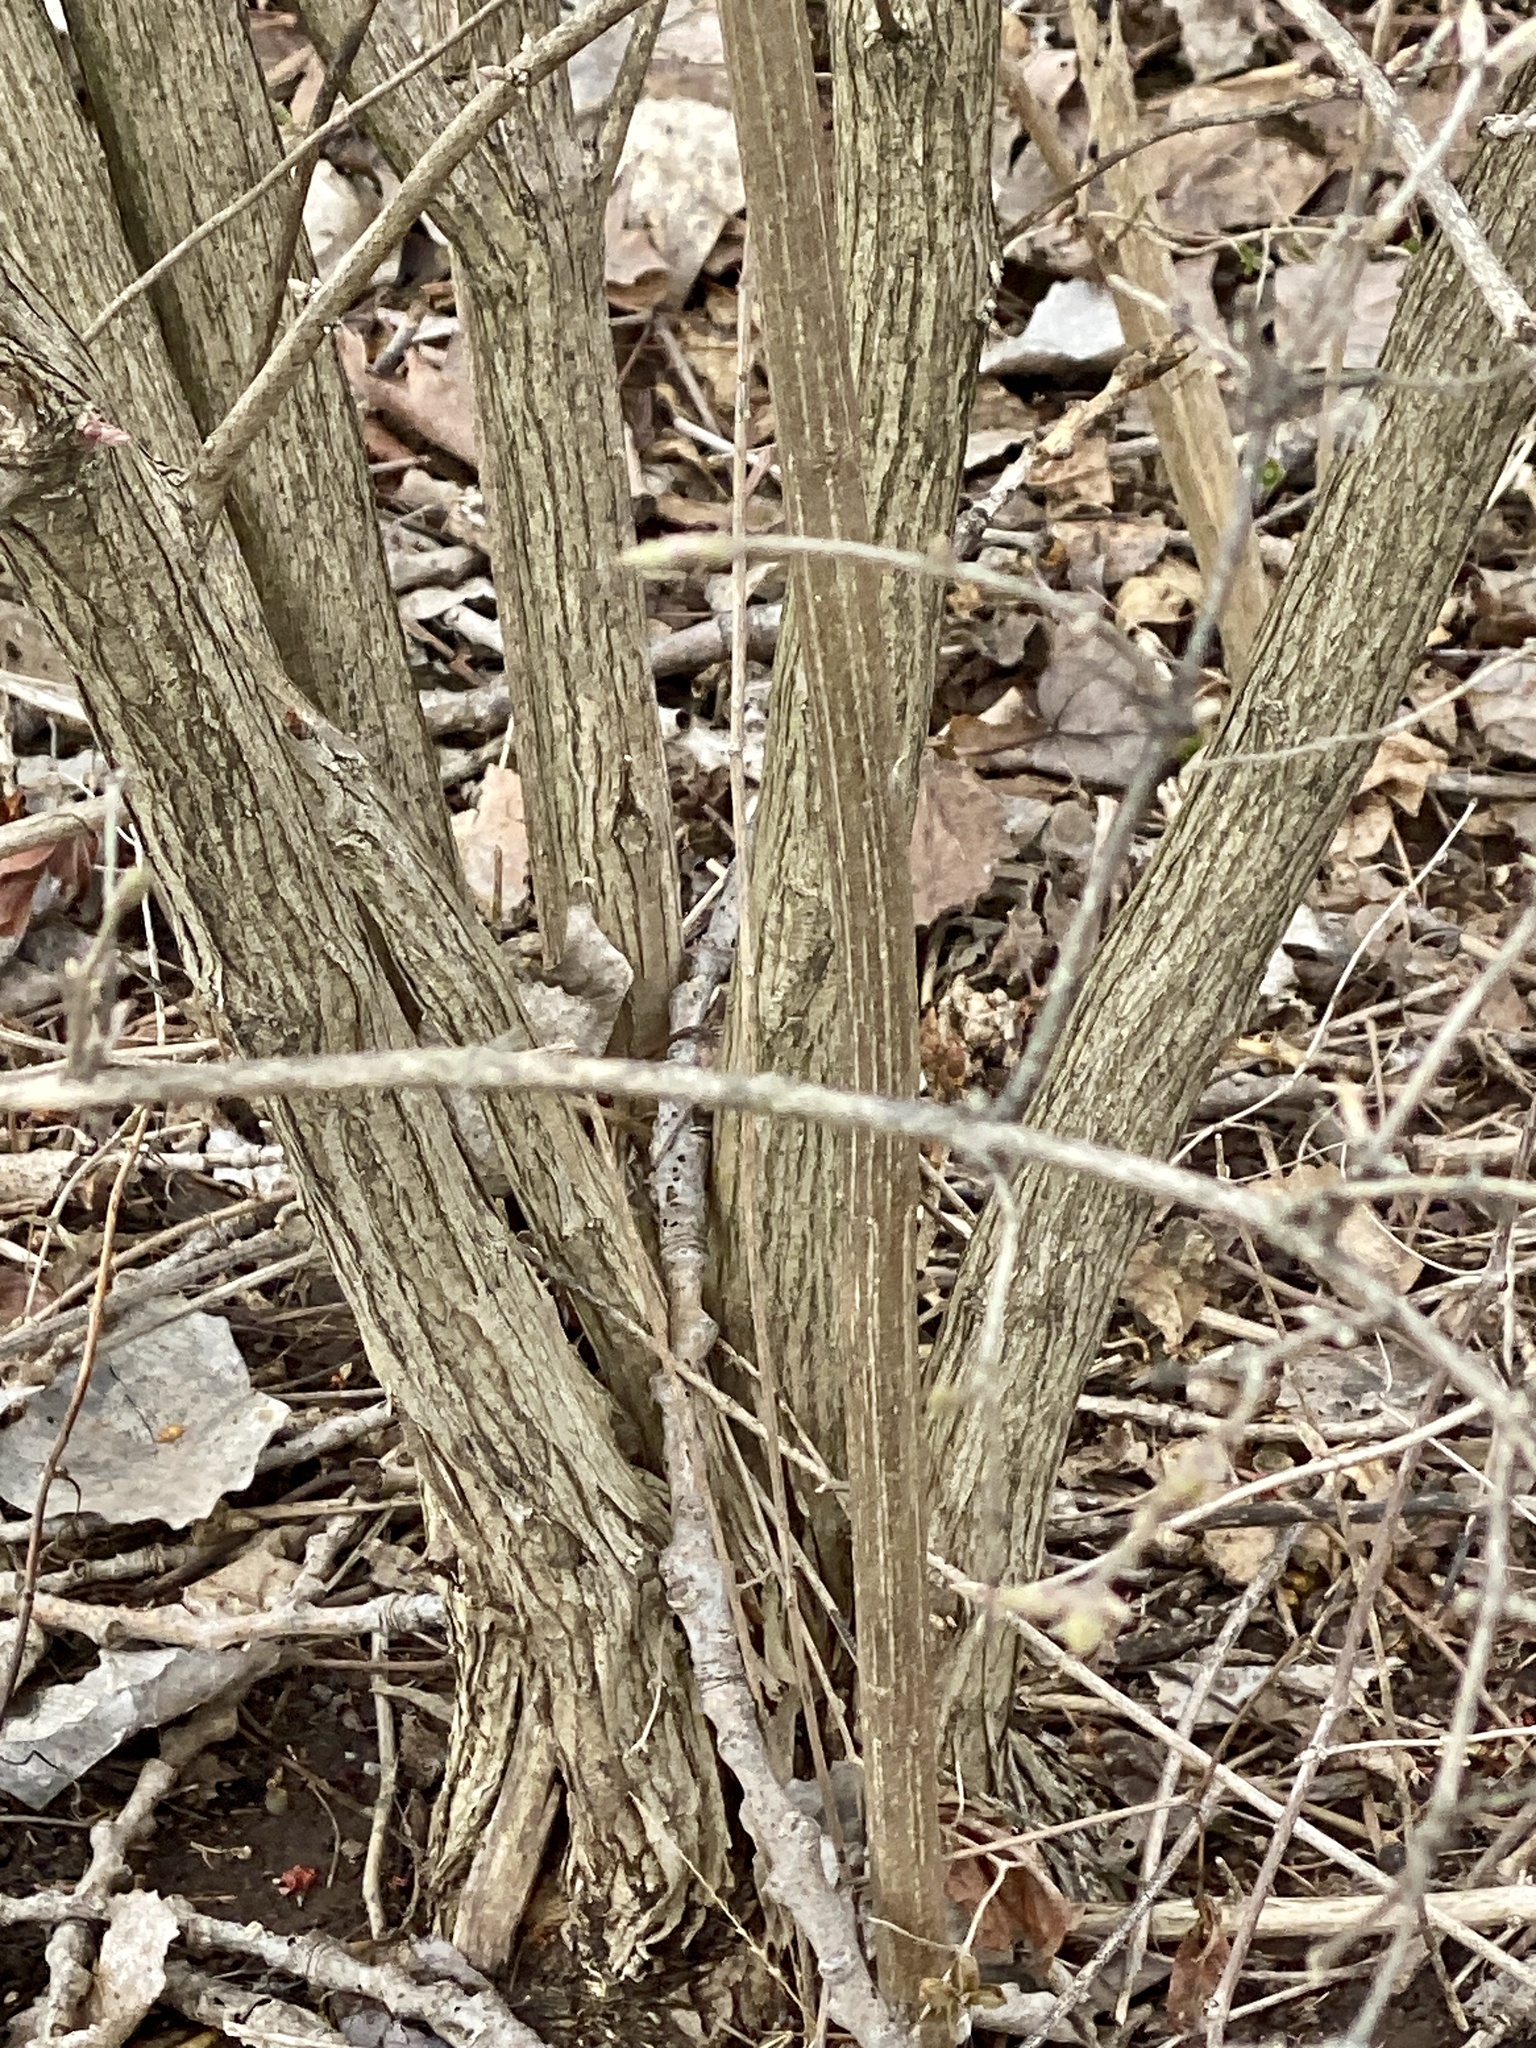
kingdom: Plantae
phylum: Tracheophyta
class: Magnoliopsida
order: Dipsacales
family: Caprifoliaceae
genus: Lonicera
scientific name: Lonicera maackii
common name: Amur honeysuckle
